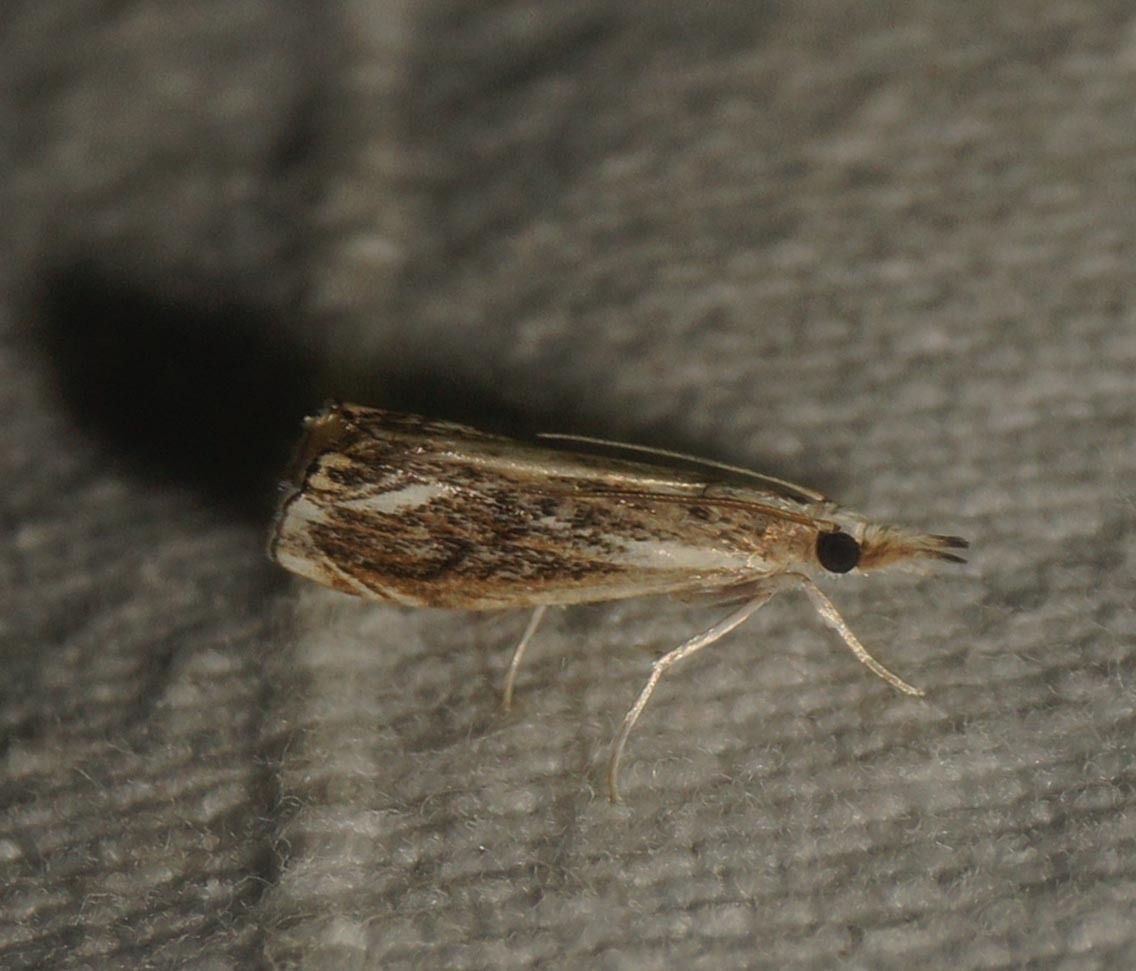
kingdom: Animalia
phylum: Arthropoda
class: Insecta
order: Lepidoptera
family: Crambidae
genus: Catoptria
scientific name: Catoptria verellus
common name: Marbled grass-veneer
